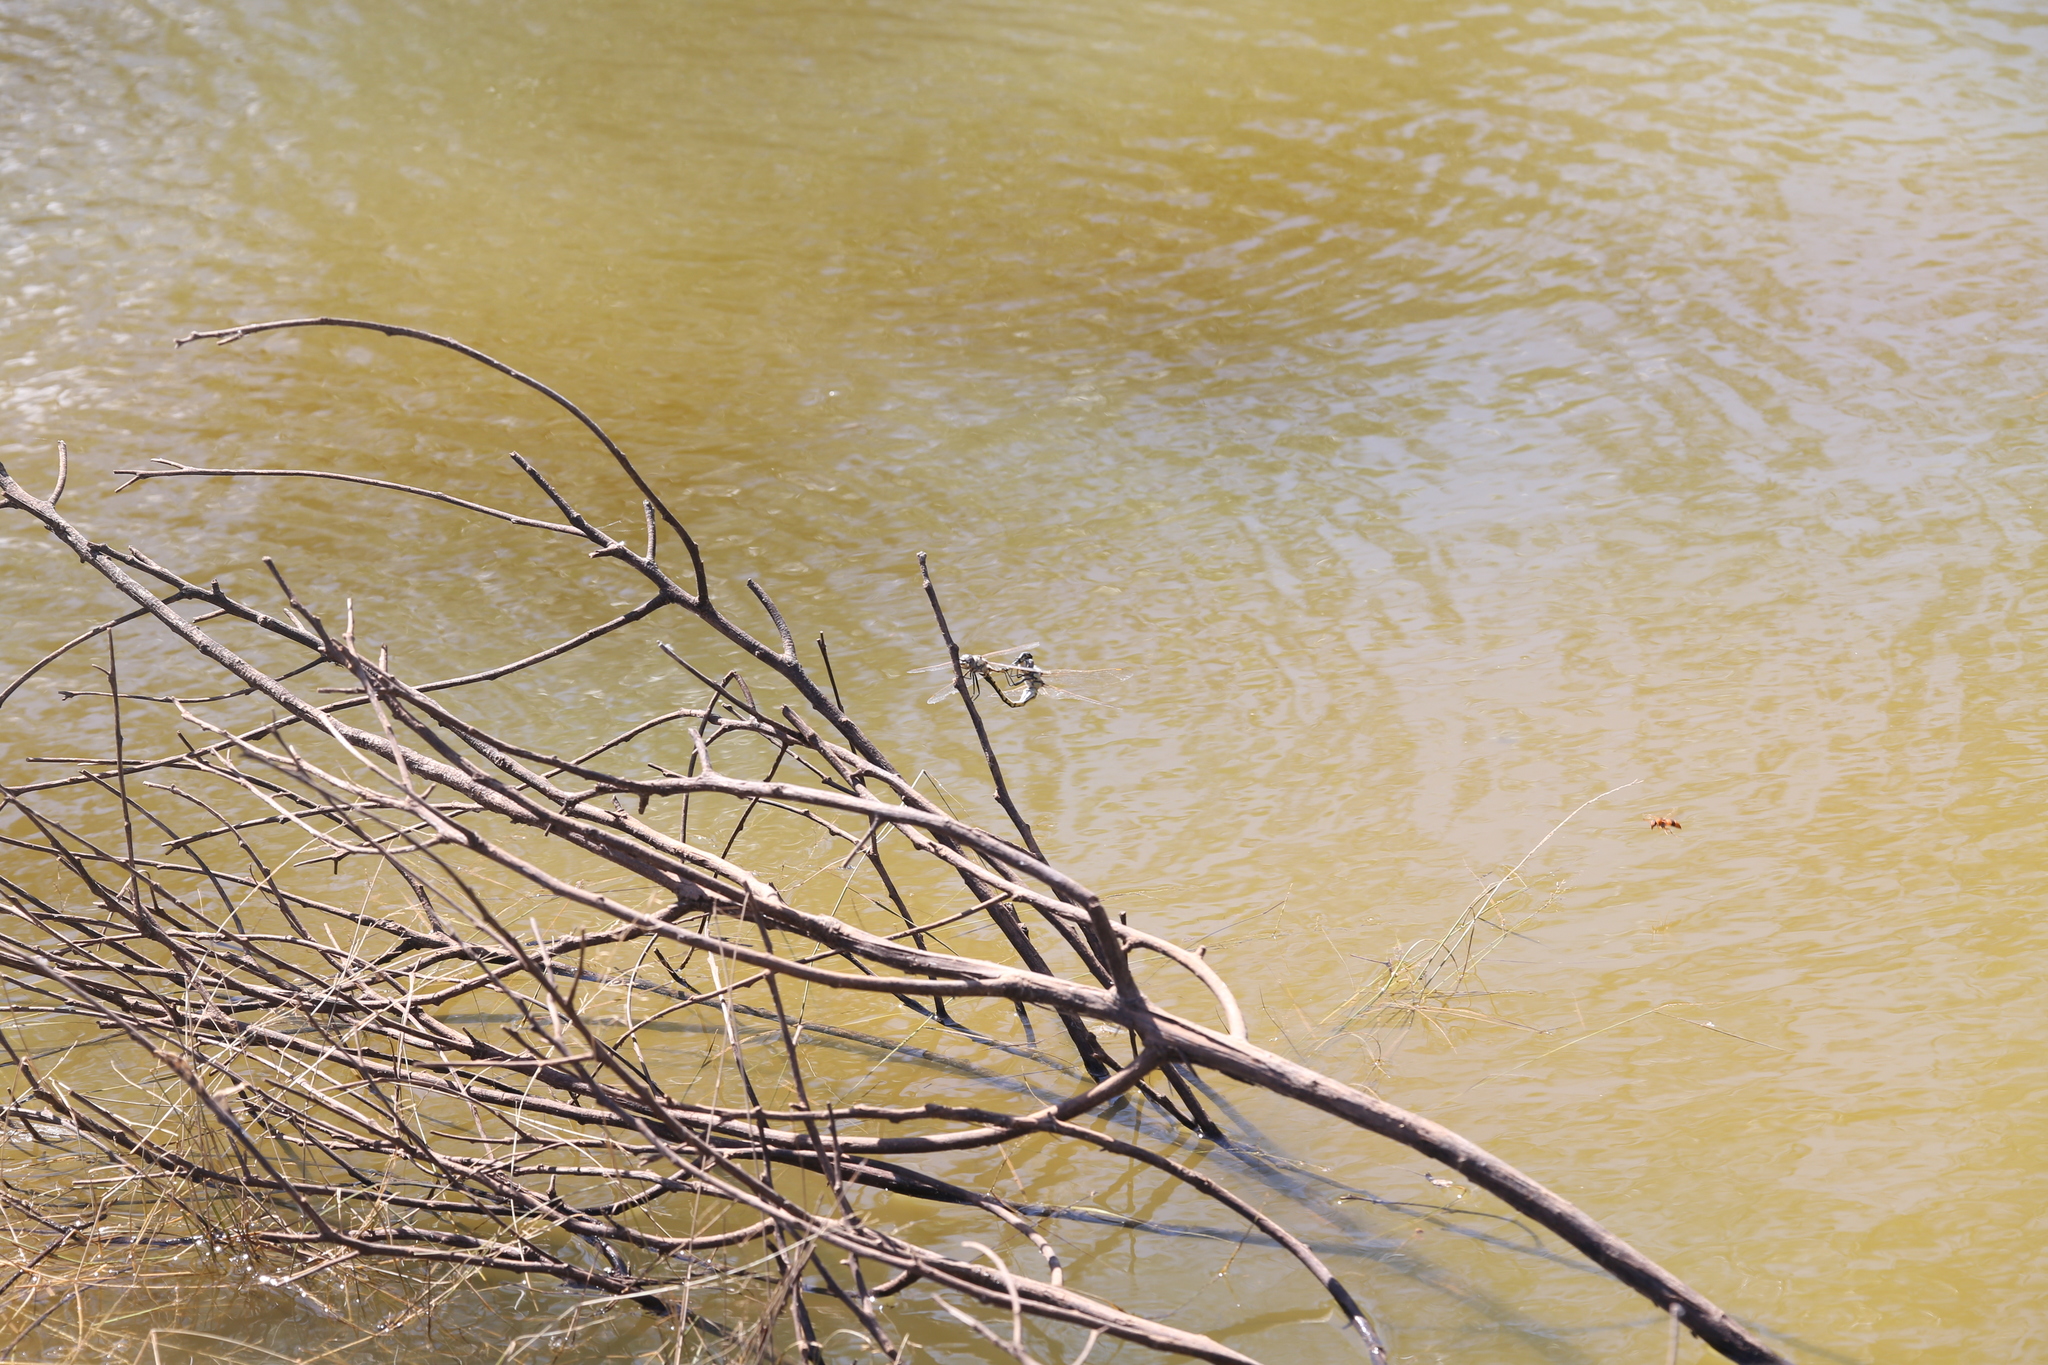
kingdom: Animalia
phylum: Arthropoda
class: Insecta
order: Odonata
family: Corduliidae
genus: Hemicordulia
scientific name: Hemicordulia tau
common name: Tau emerald
